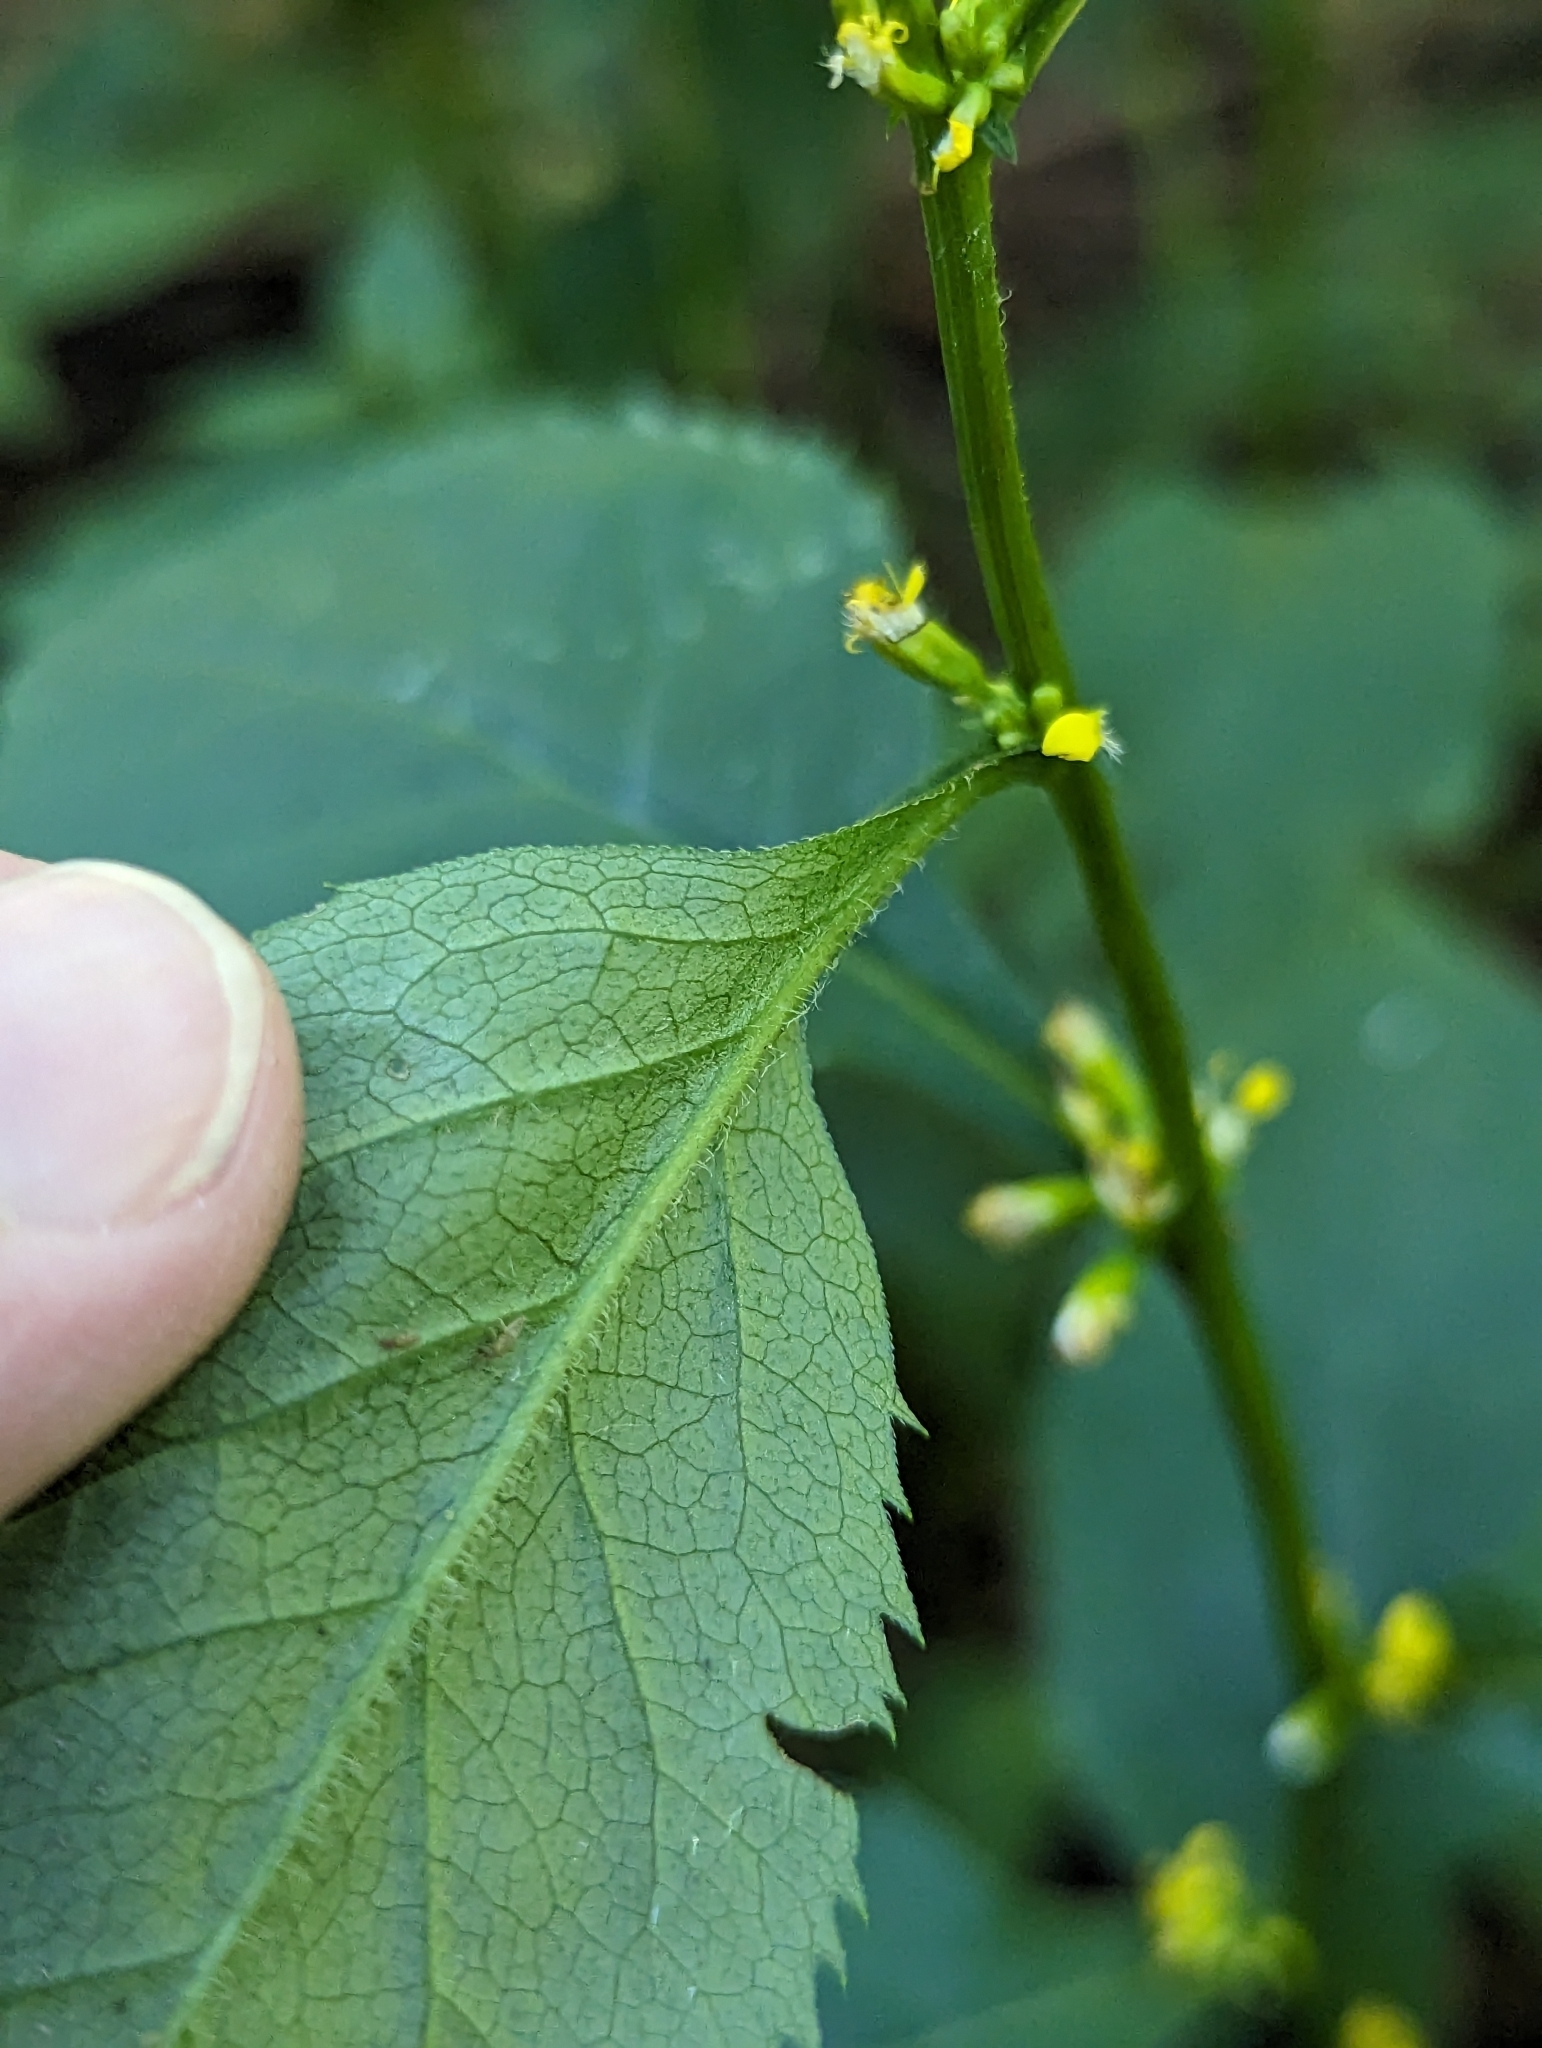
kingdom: Plantae
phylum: Tracheophyta
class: Magnoliopsida
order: Asterales
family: Asteraceae
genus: Solidago
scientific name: Solidago flexicaulis
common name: Zig-zag goldenrod
